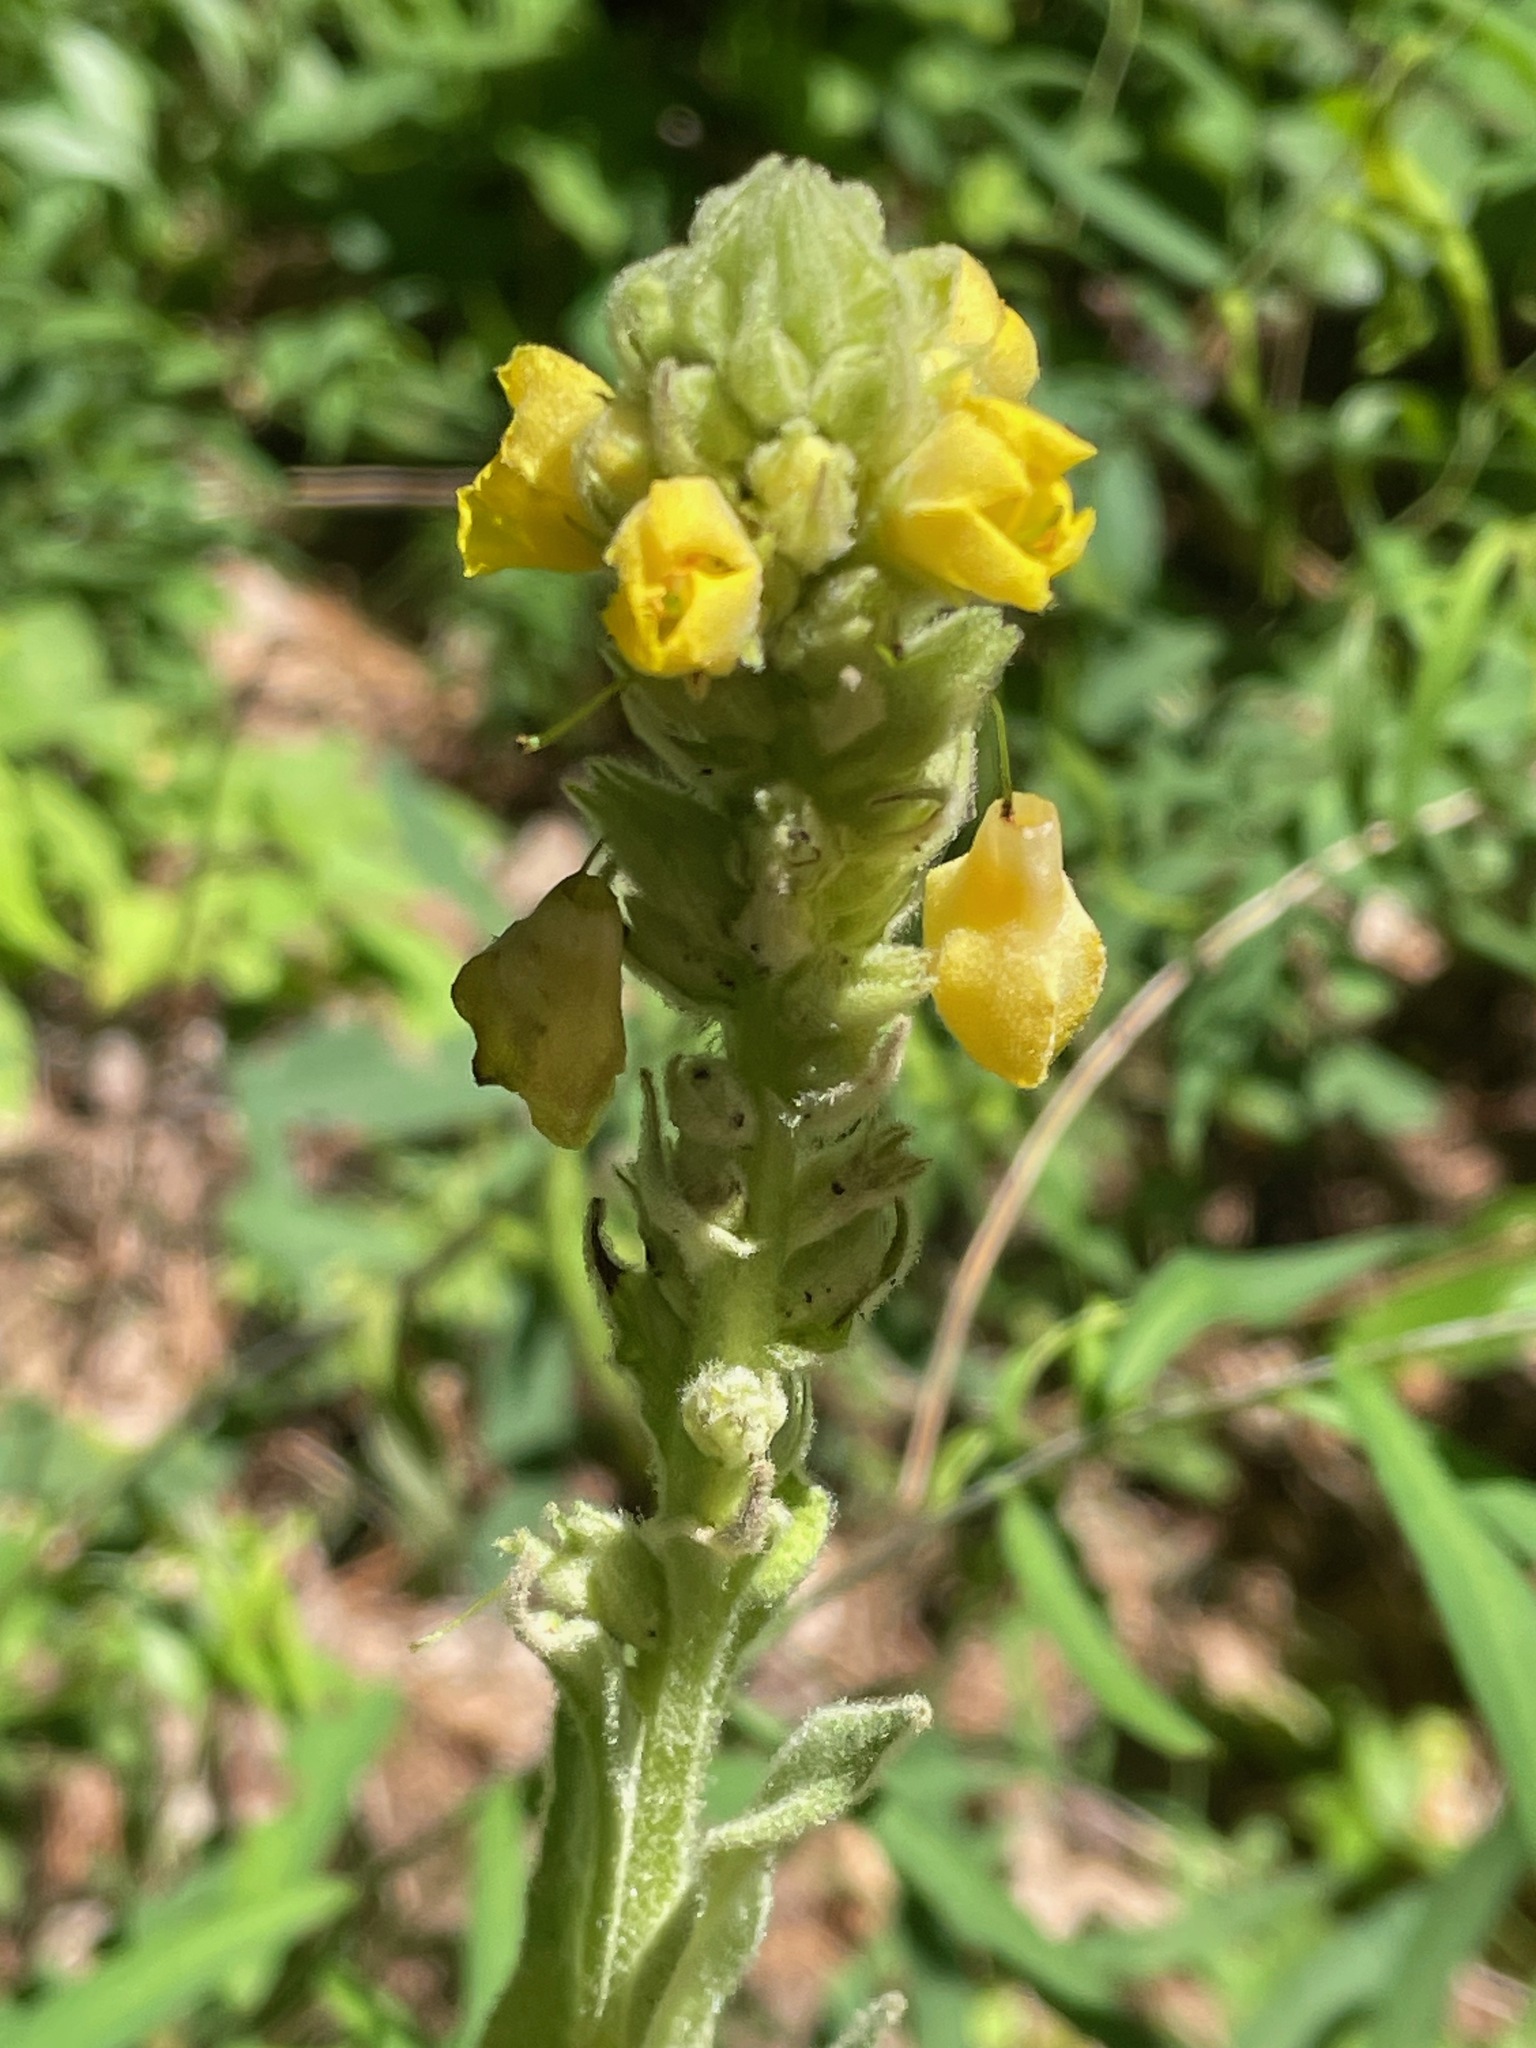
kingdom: Plantae
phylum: Tracheophyta
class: Magnoliopsida
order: Lamiales
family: Scrophulariaceae
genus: Verbascum
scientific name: Verbascum thapsus
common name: Common mullein
